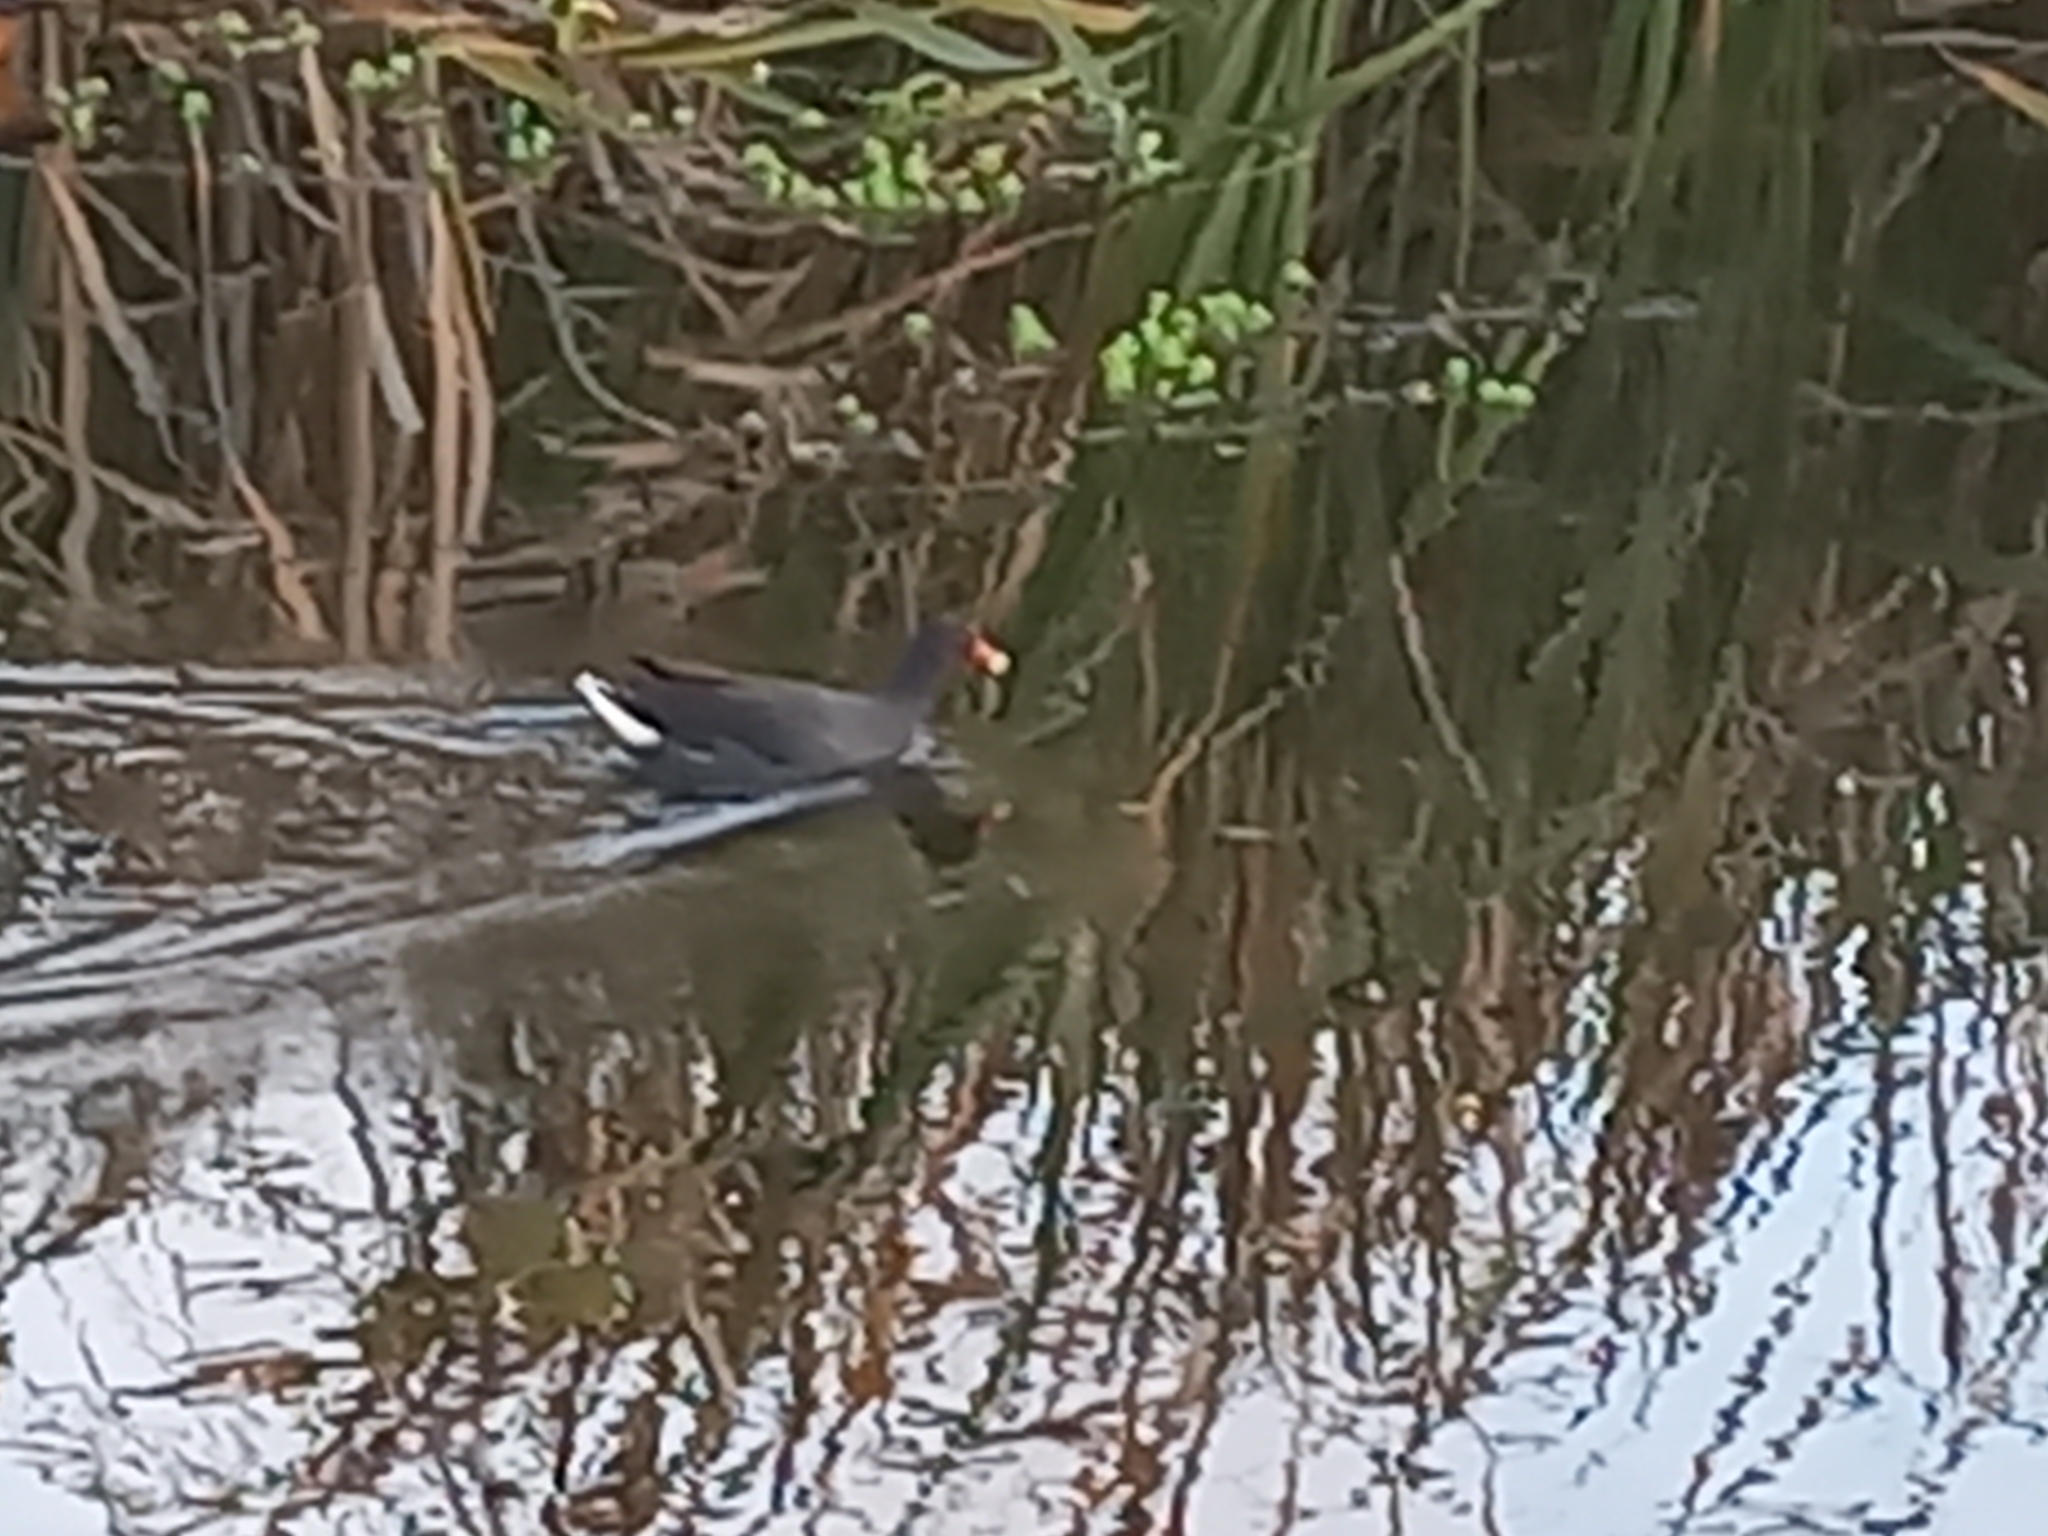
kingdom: Animalia
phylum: Chordata
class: Aves
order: Gruiformes
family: Rallidae
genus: Gallinula
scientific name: Gallinula chloropus
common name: Common moorhen
